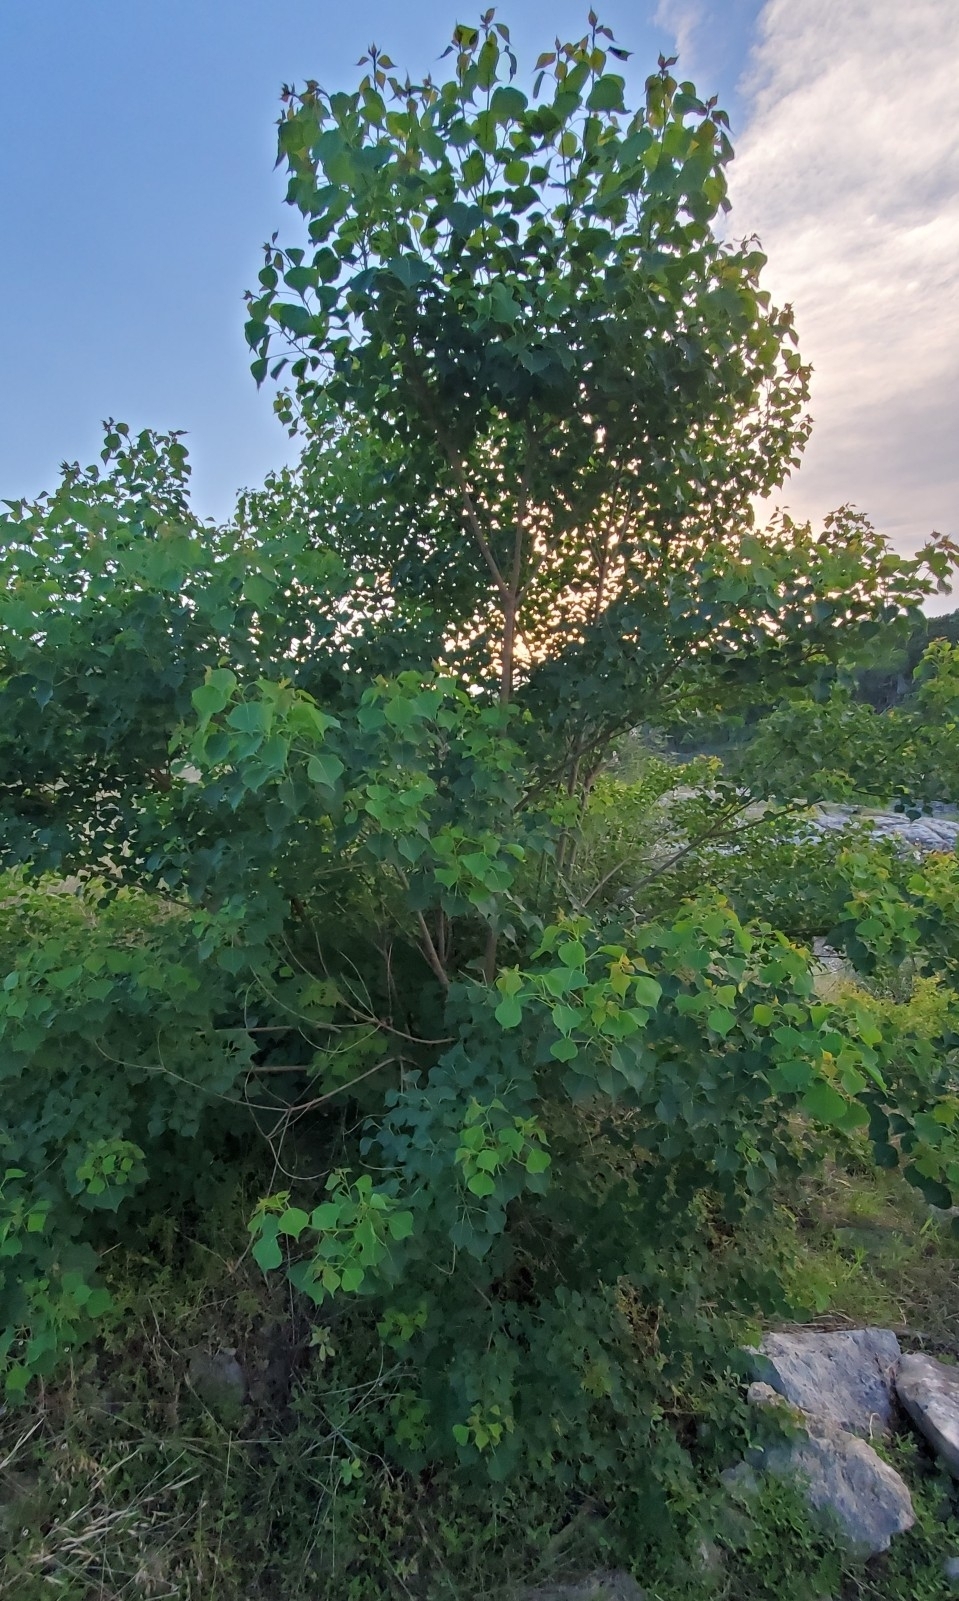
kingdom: Plantae
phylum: Tracheophyta
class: Magnoliopsida
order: Malpighiales
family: Euphorbiaceae
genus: Triadica
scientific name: Triadica sebifera
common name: Chinese tallow
